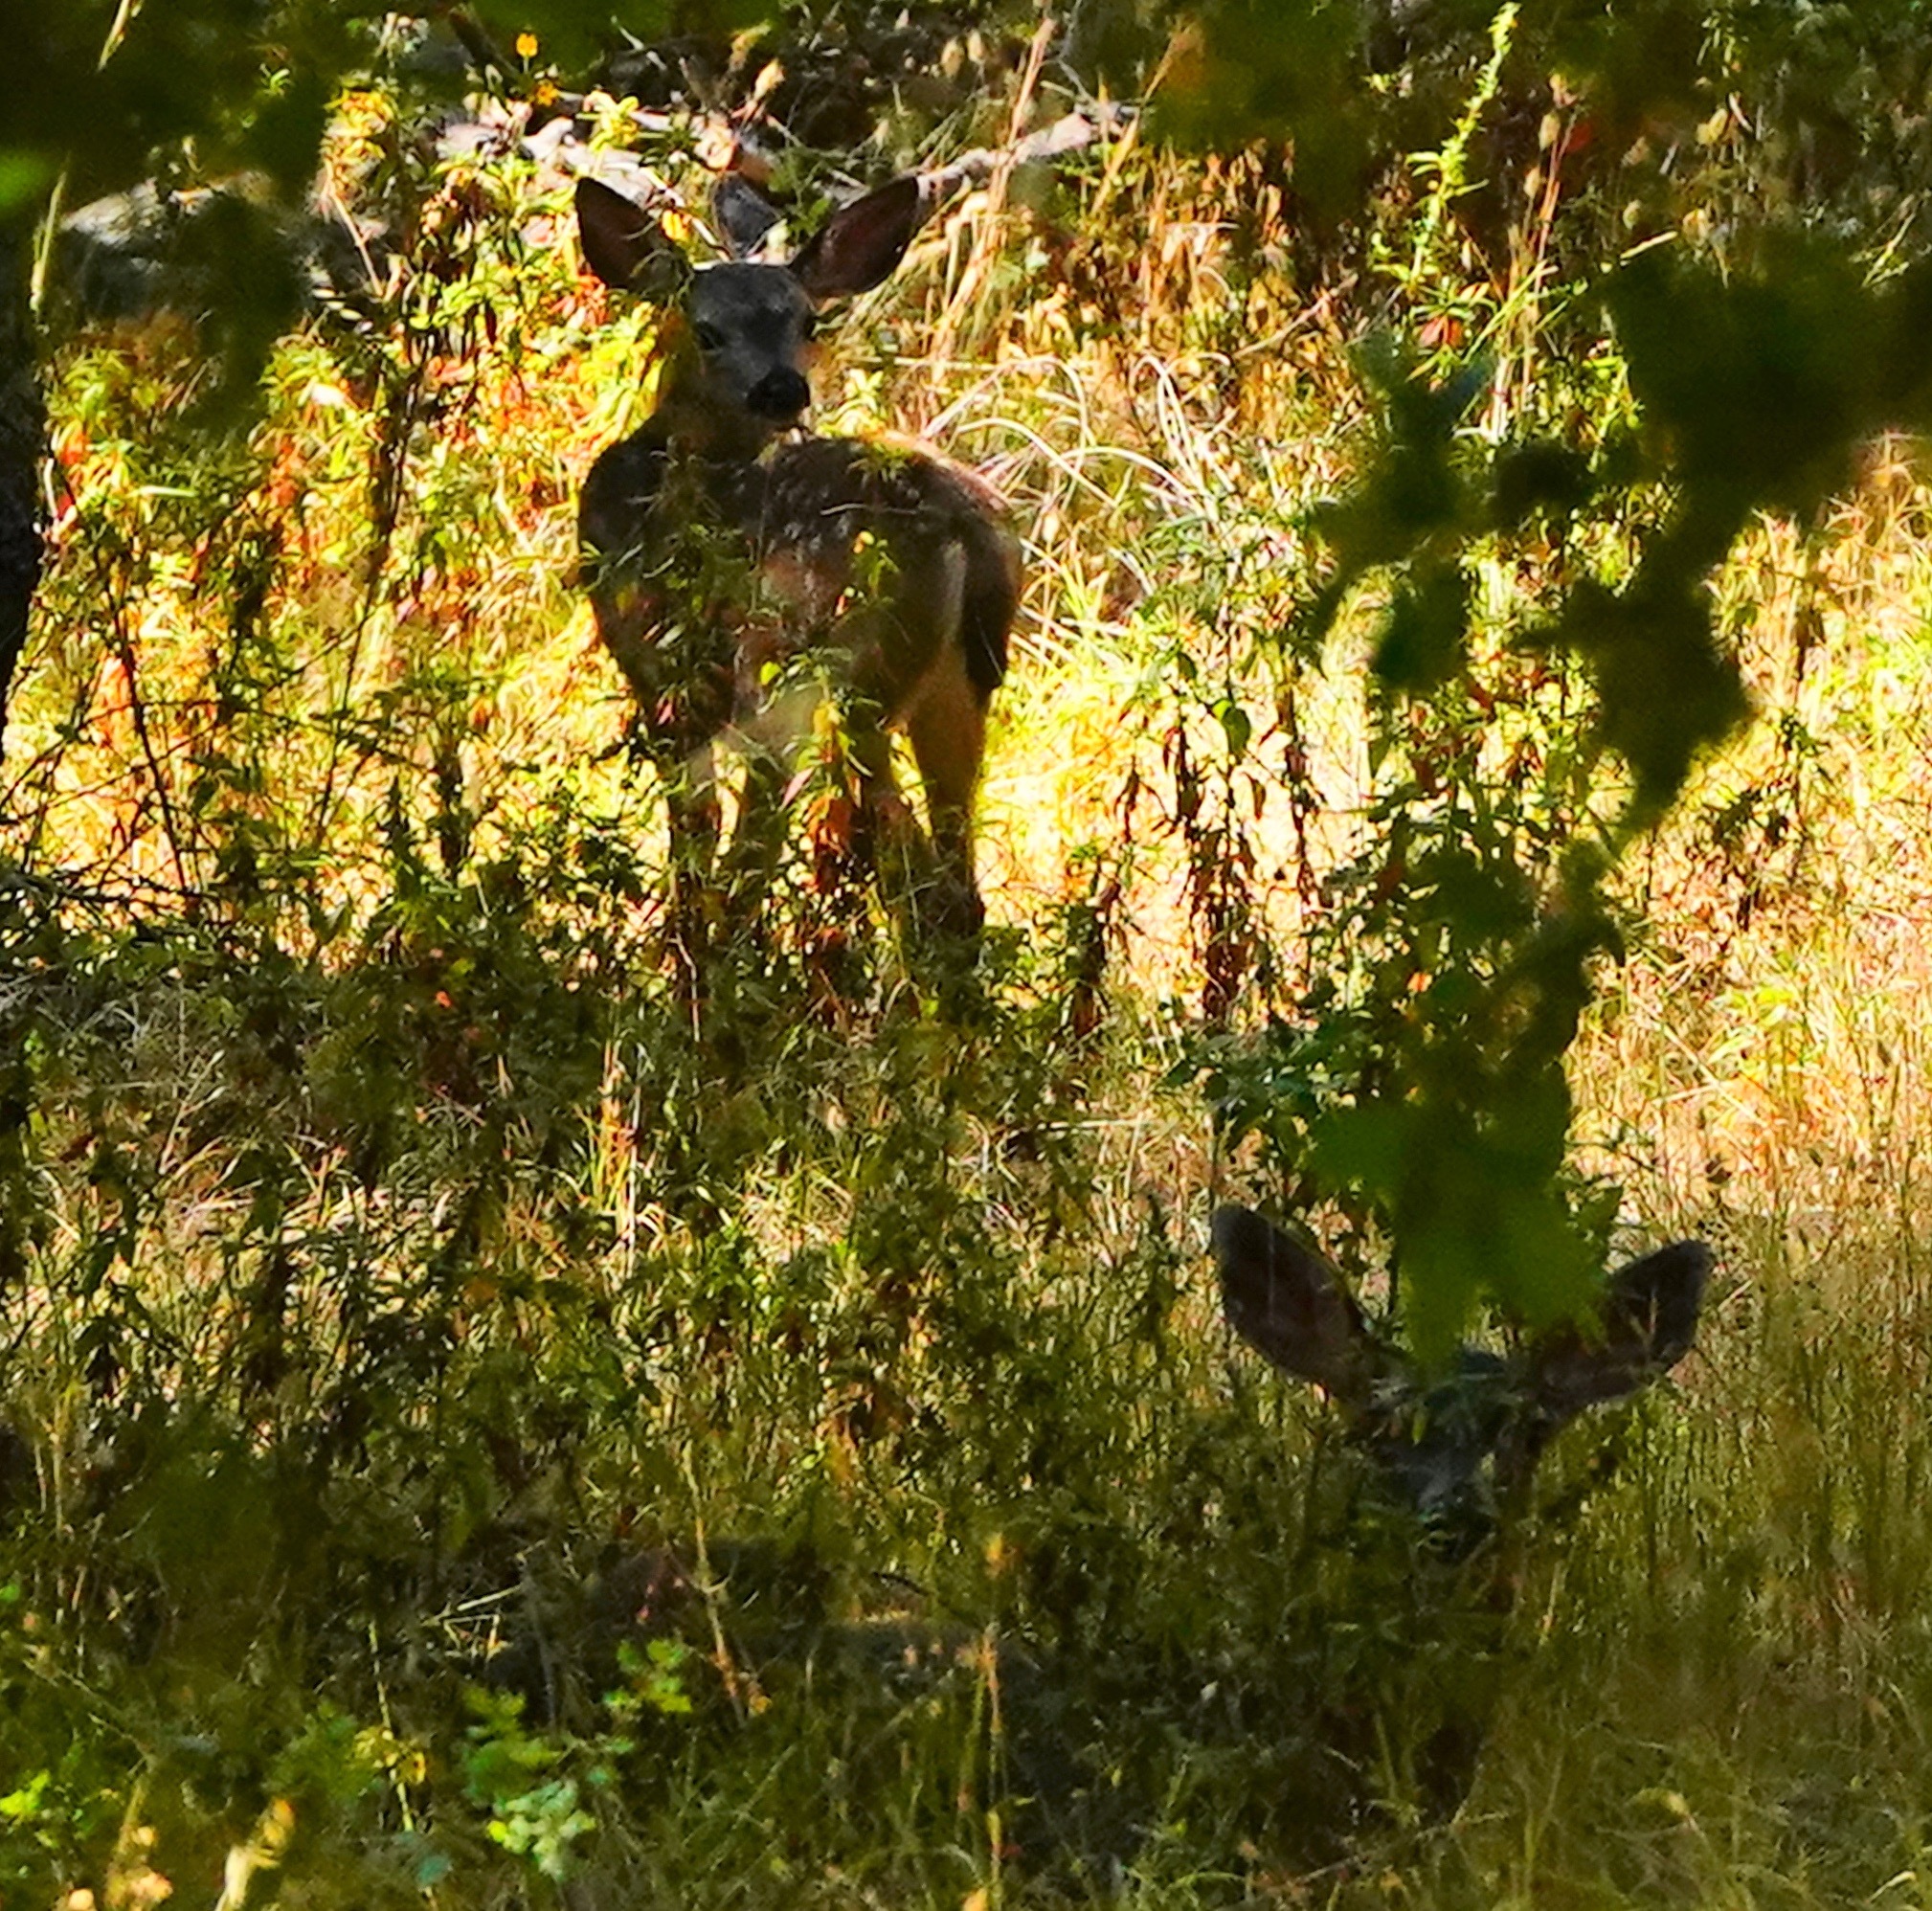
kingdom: Animalia
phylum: Chordata
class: Mammalia
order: Artiodactyla
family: Cervidae
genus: Odocoileus
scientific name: Odocoileus hemionus
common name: Mule deer
